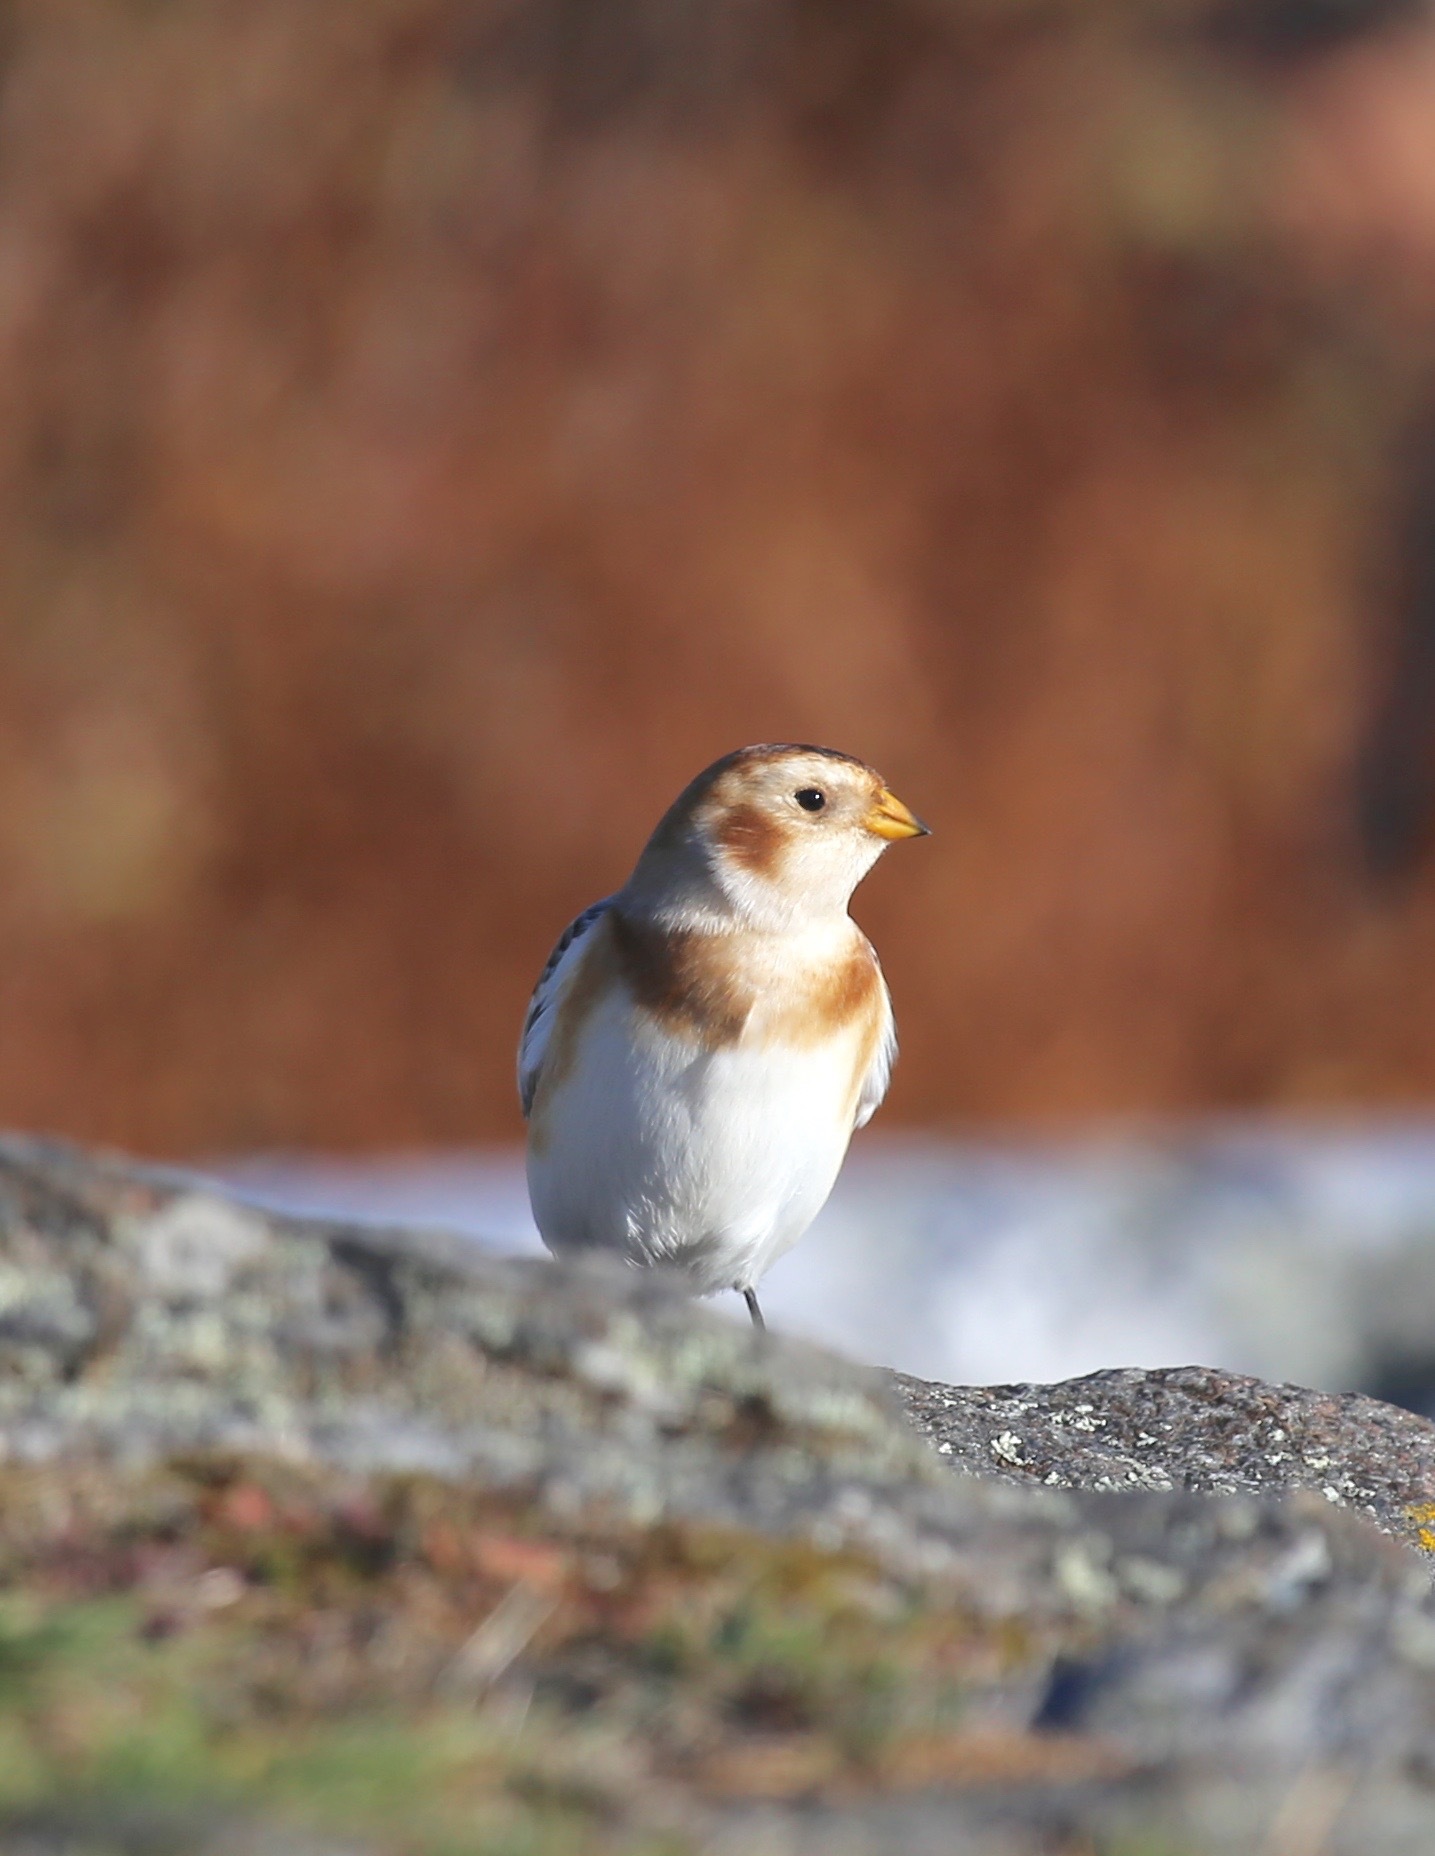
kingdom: Animalia
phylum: Chordata
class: Aves
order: Passeriformes
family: Calcariidae
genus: Plectrophenax
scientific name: Plectrophenax nivalis
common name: Snow bunting
